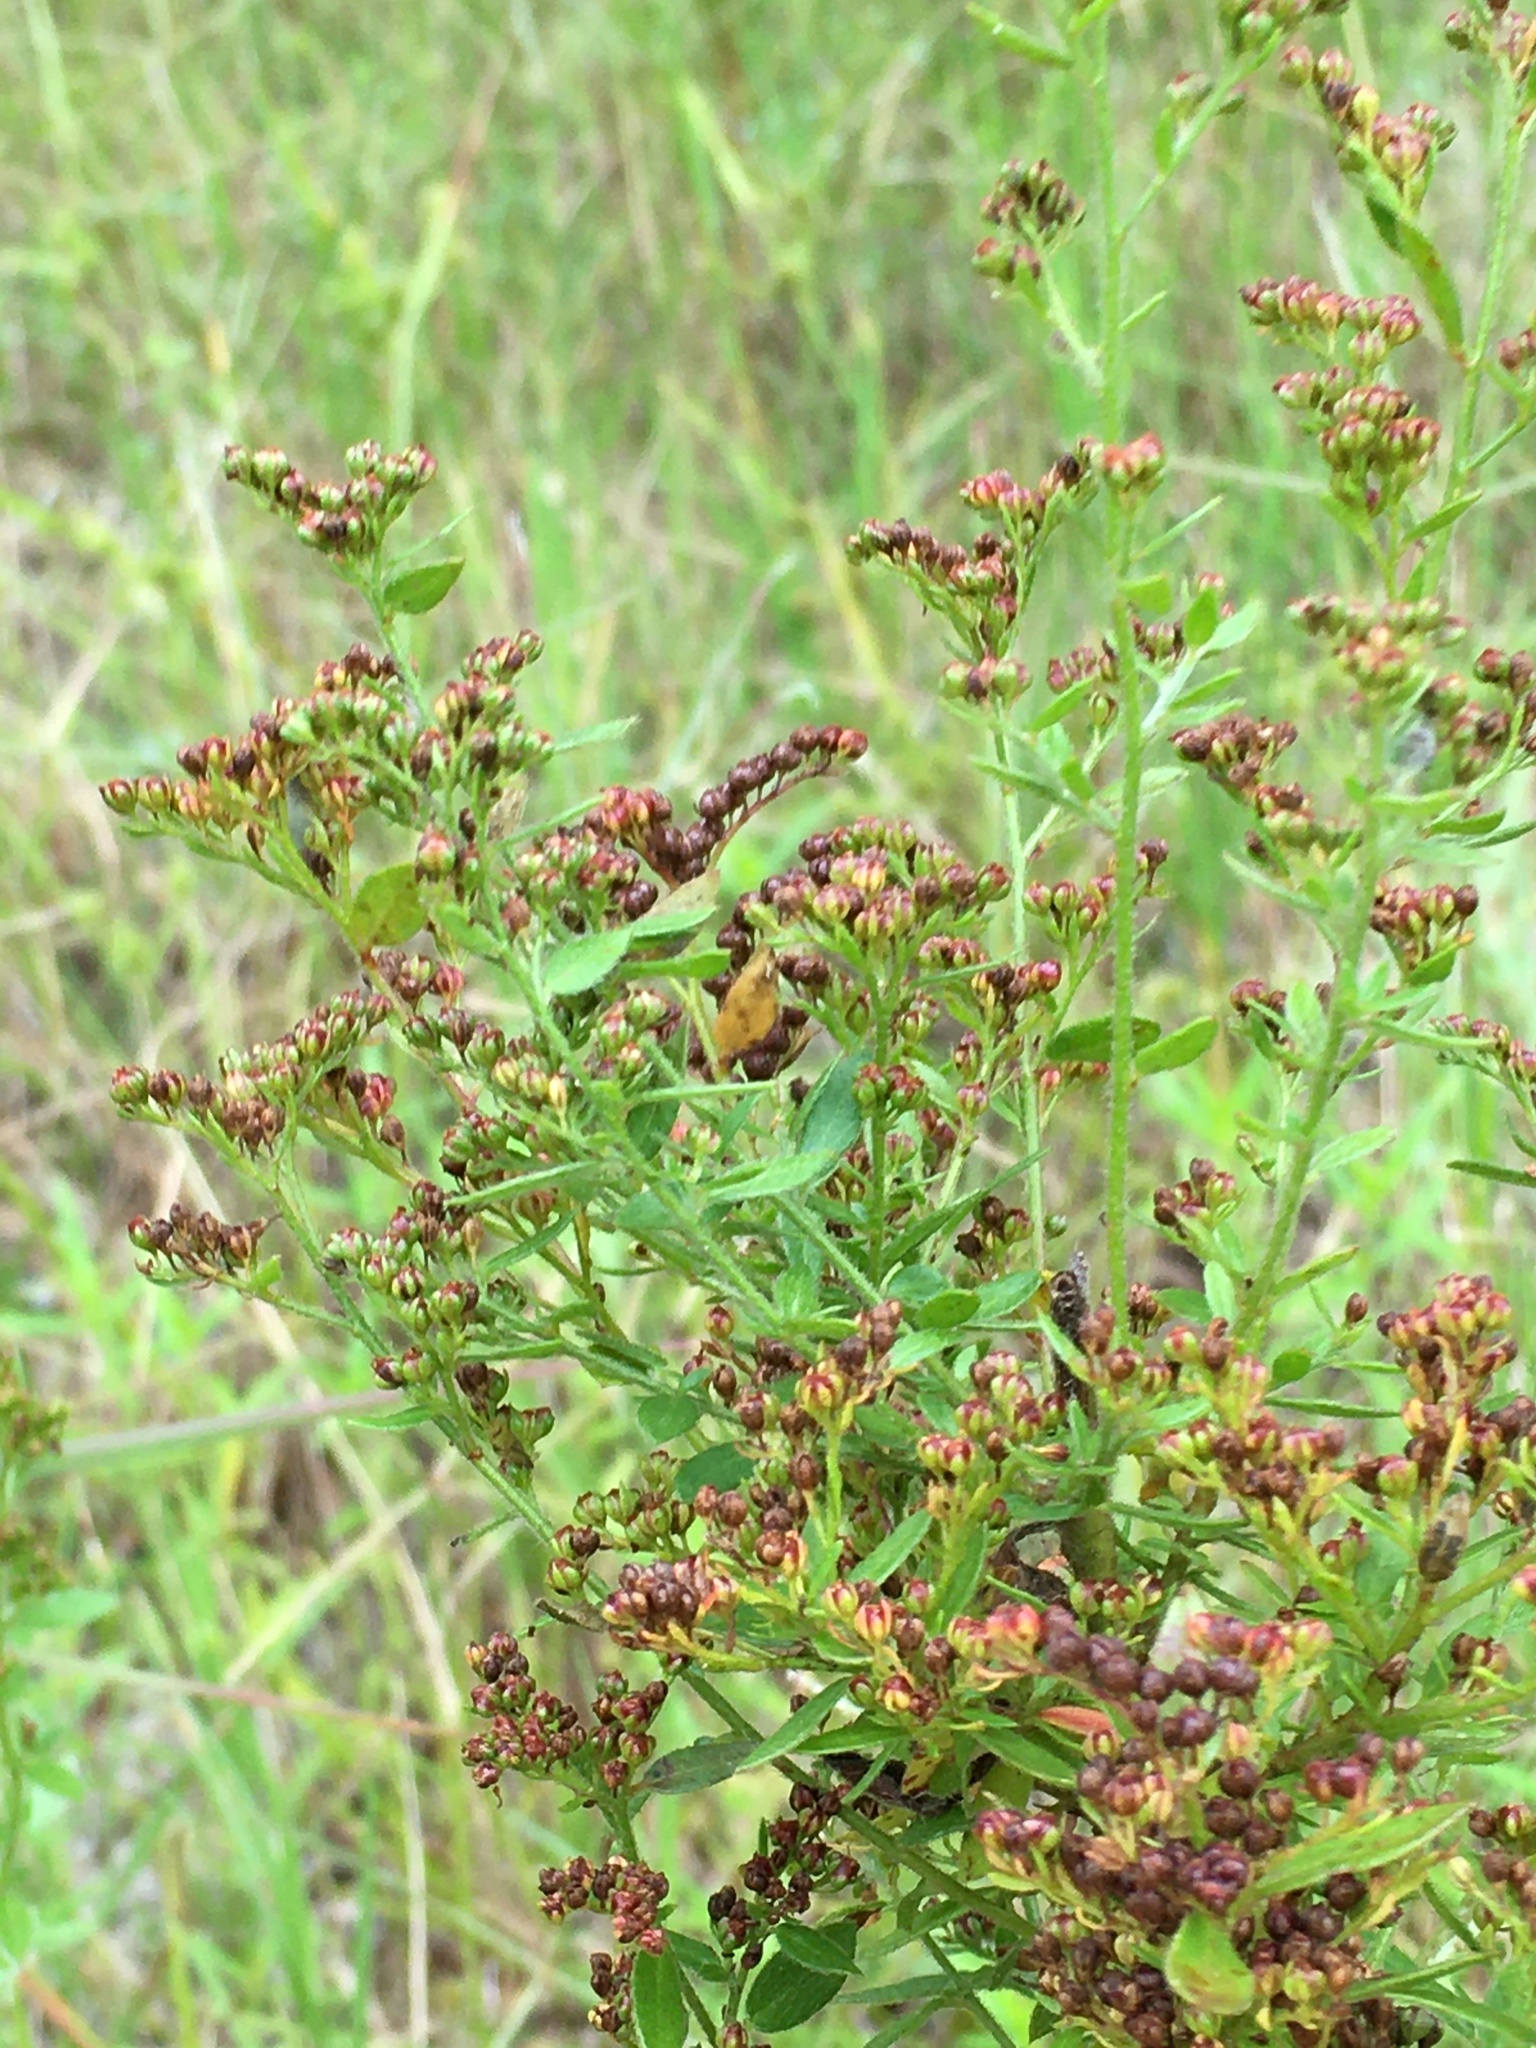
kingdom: Plantae
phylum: Tracheophyta
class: Magnoliopsida
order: Malvales
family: Cistaceae
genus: Lechea
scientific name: Lechea mucronata
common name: Hairy pinweed
